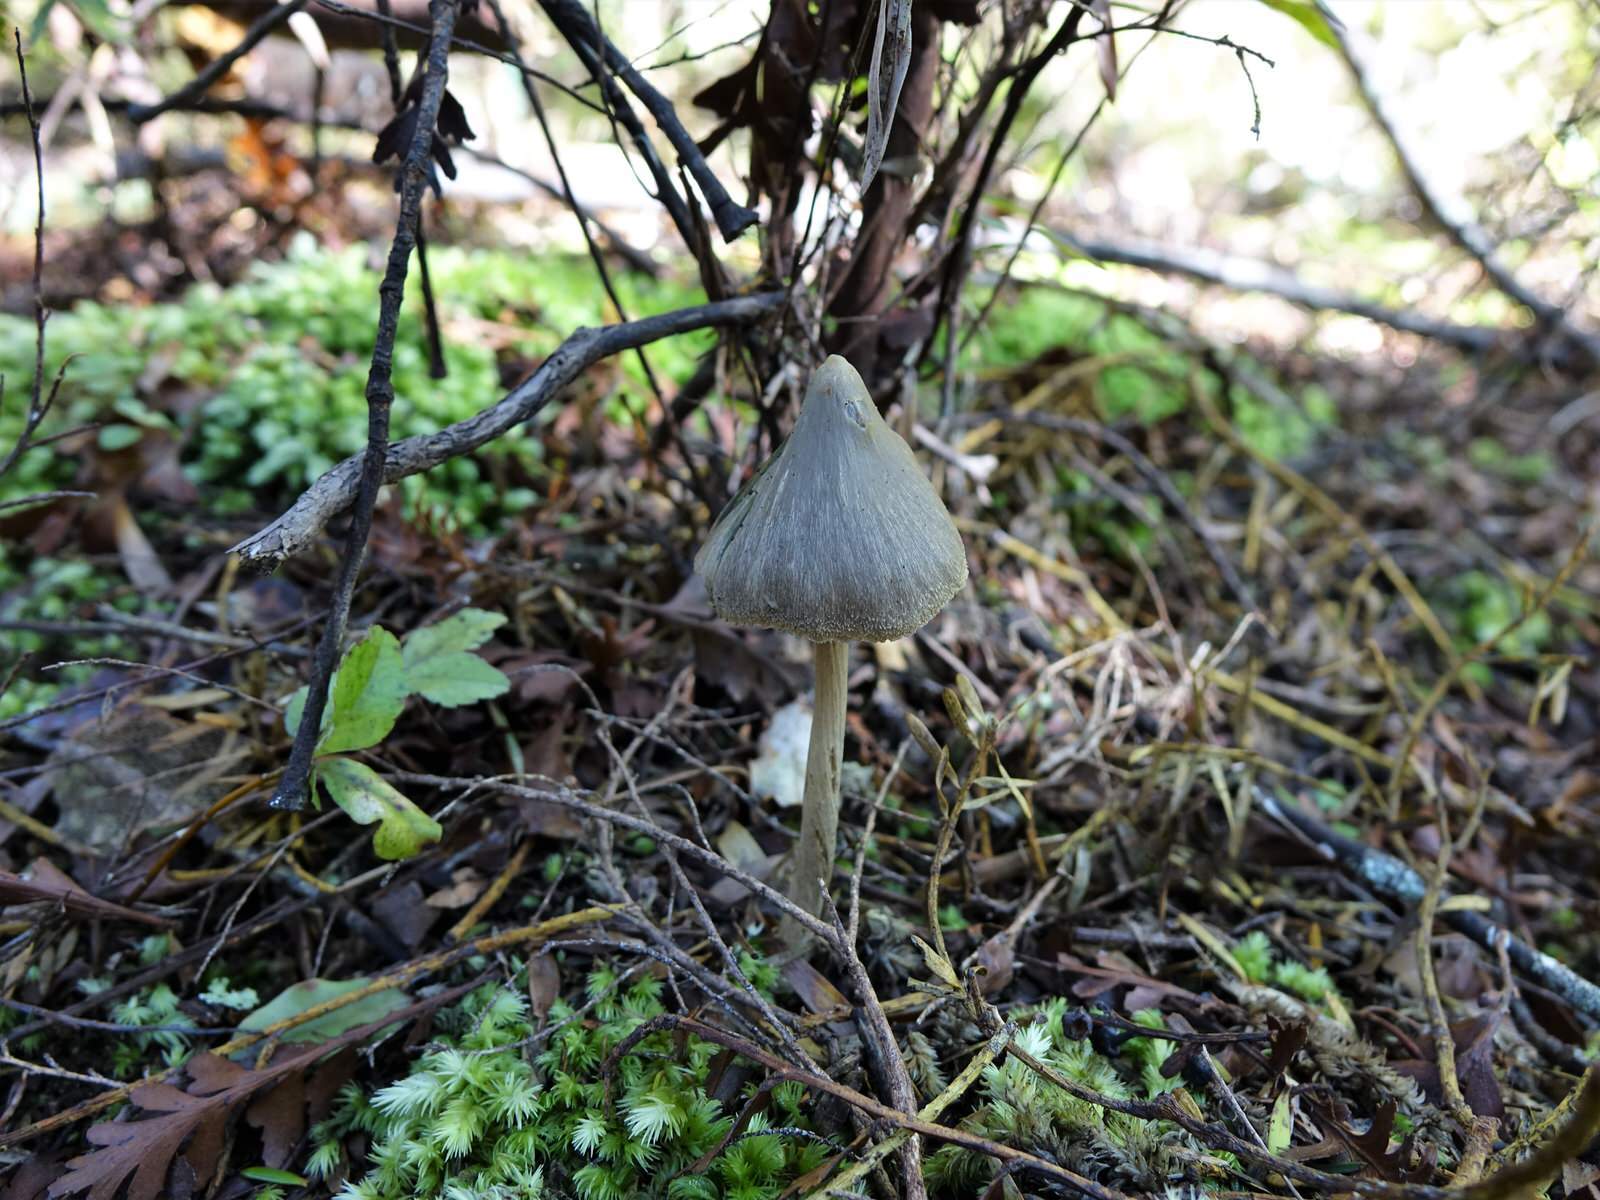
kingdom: Fungi
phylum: Basidiomycota
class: Agaricomycetes
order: Agaricales
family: Entolomataceae
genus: Entoloma
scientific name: Entoloma canoconicum
